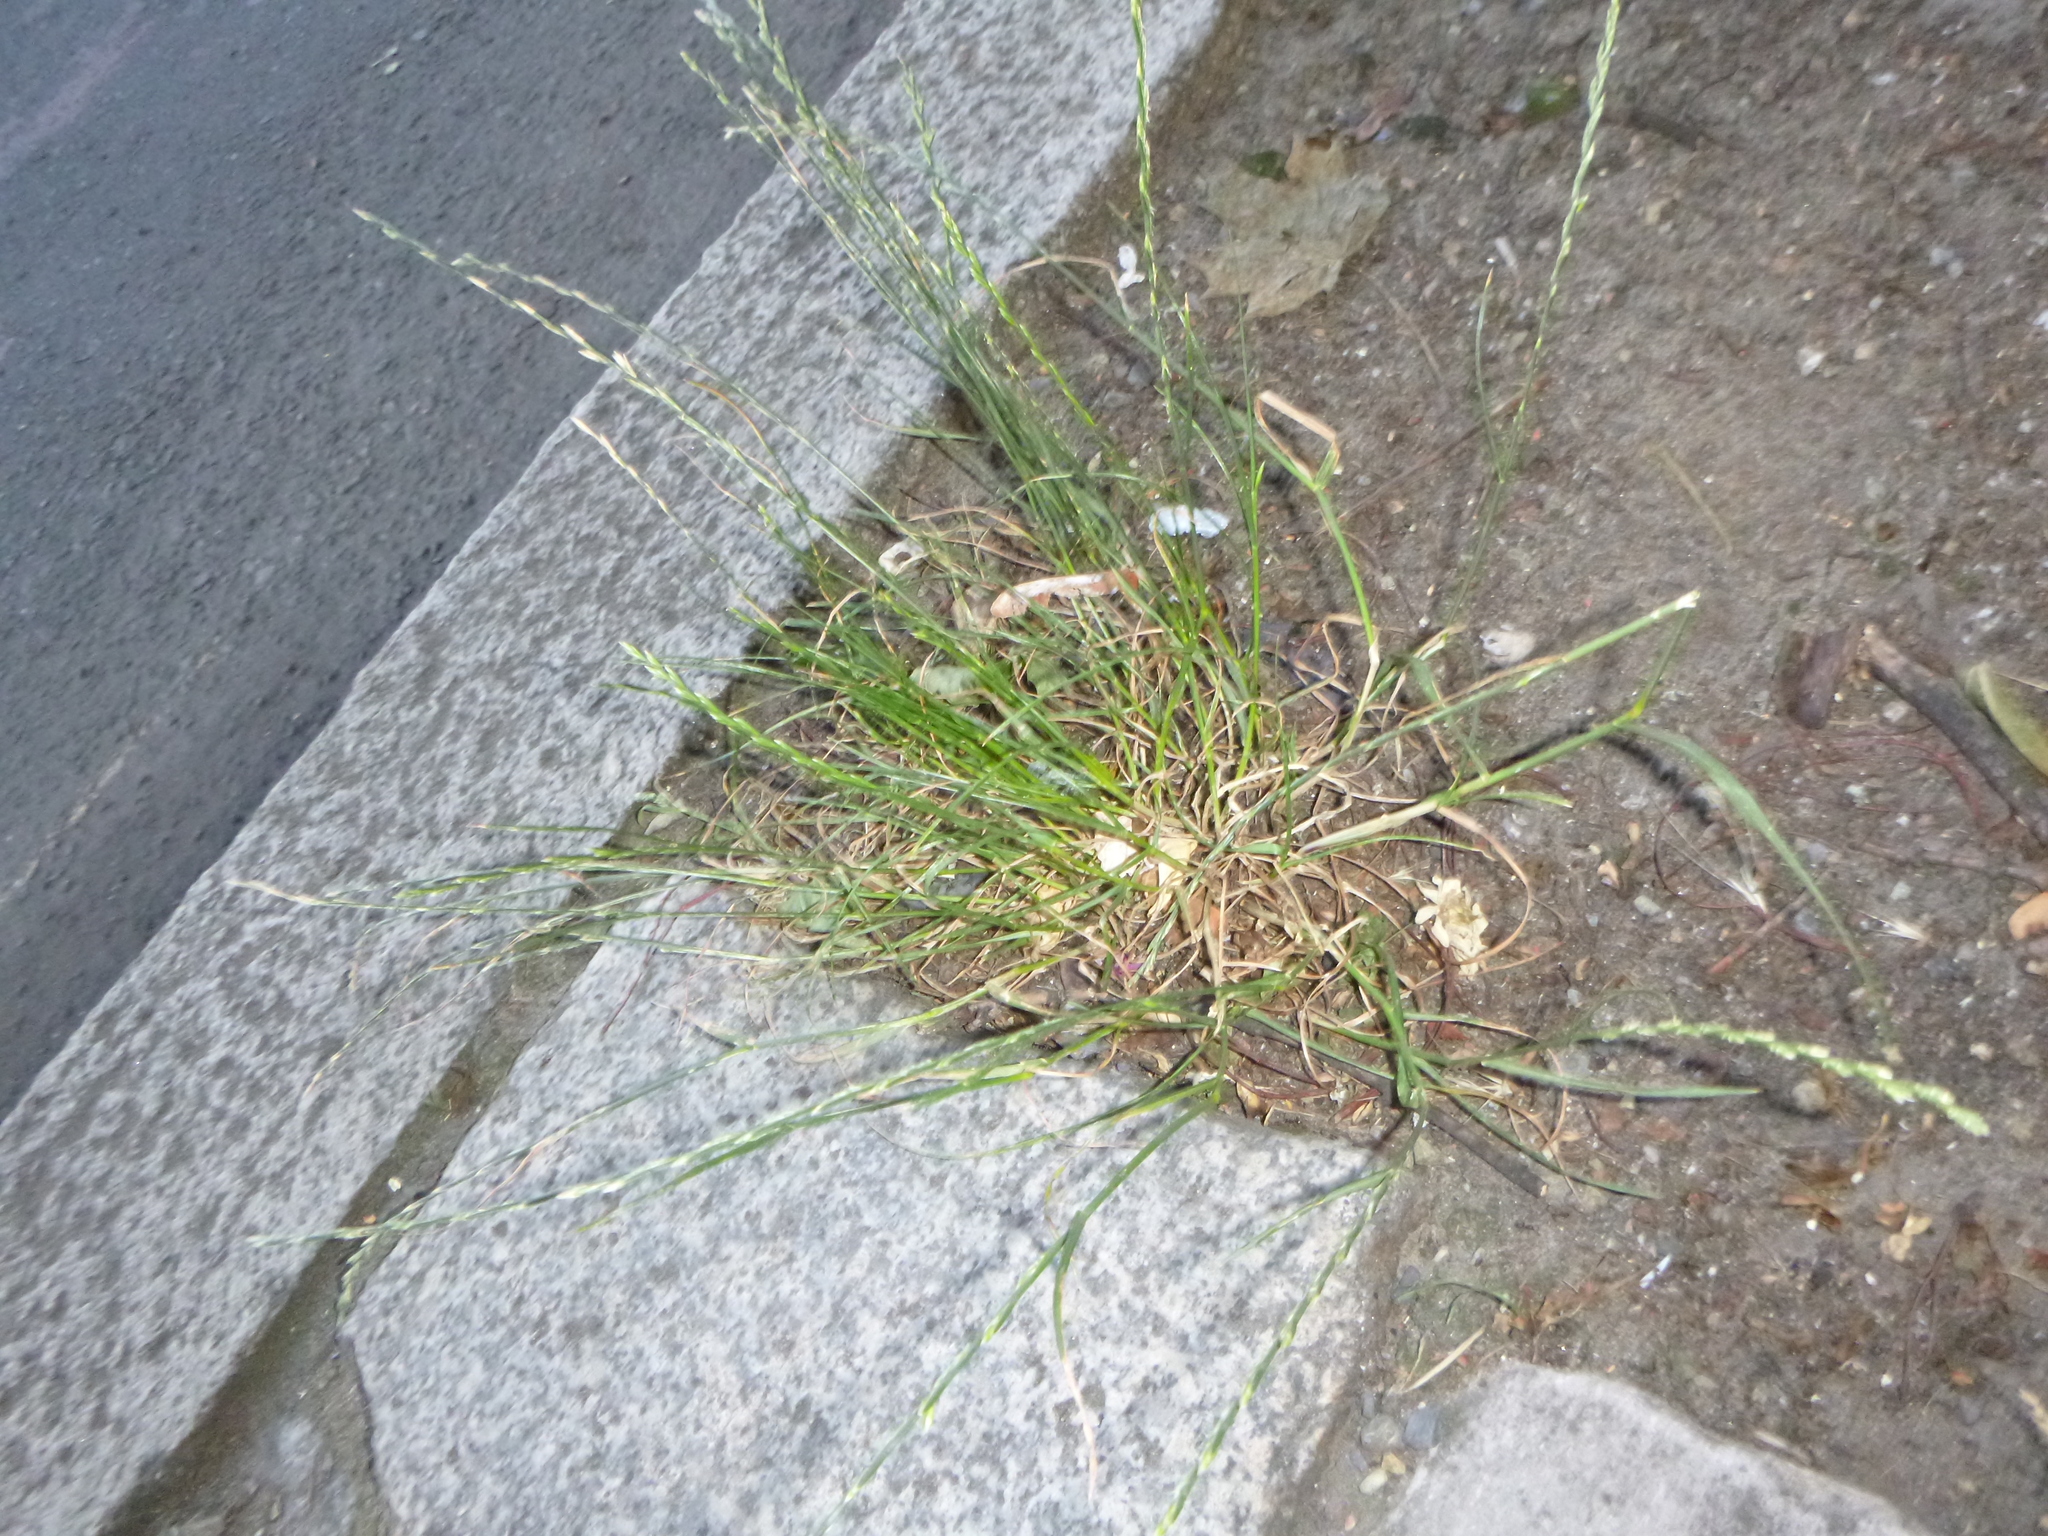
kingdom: Plantae
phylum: Tracheophyta
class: Liliopsida
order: Poales
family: Poaceae
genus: Lolium
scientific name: Lolium perenne
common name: Perennial ryegrass
